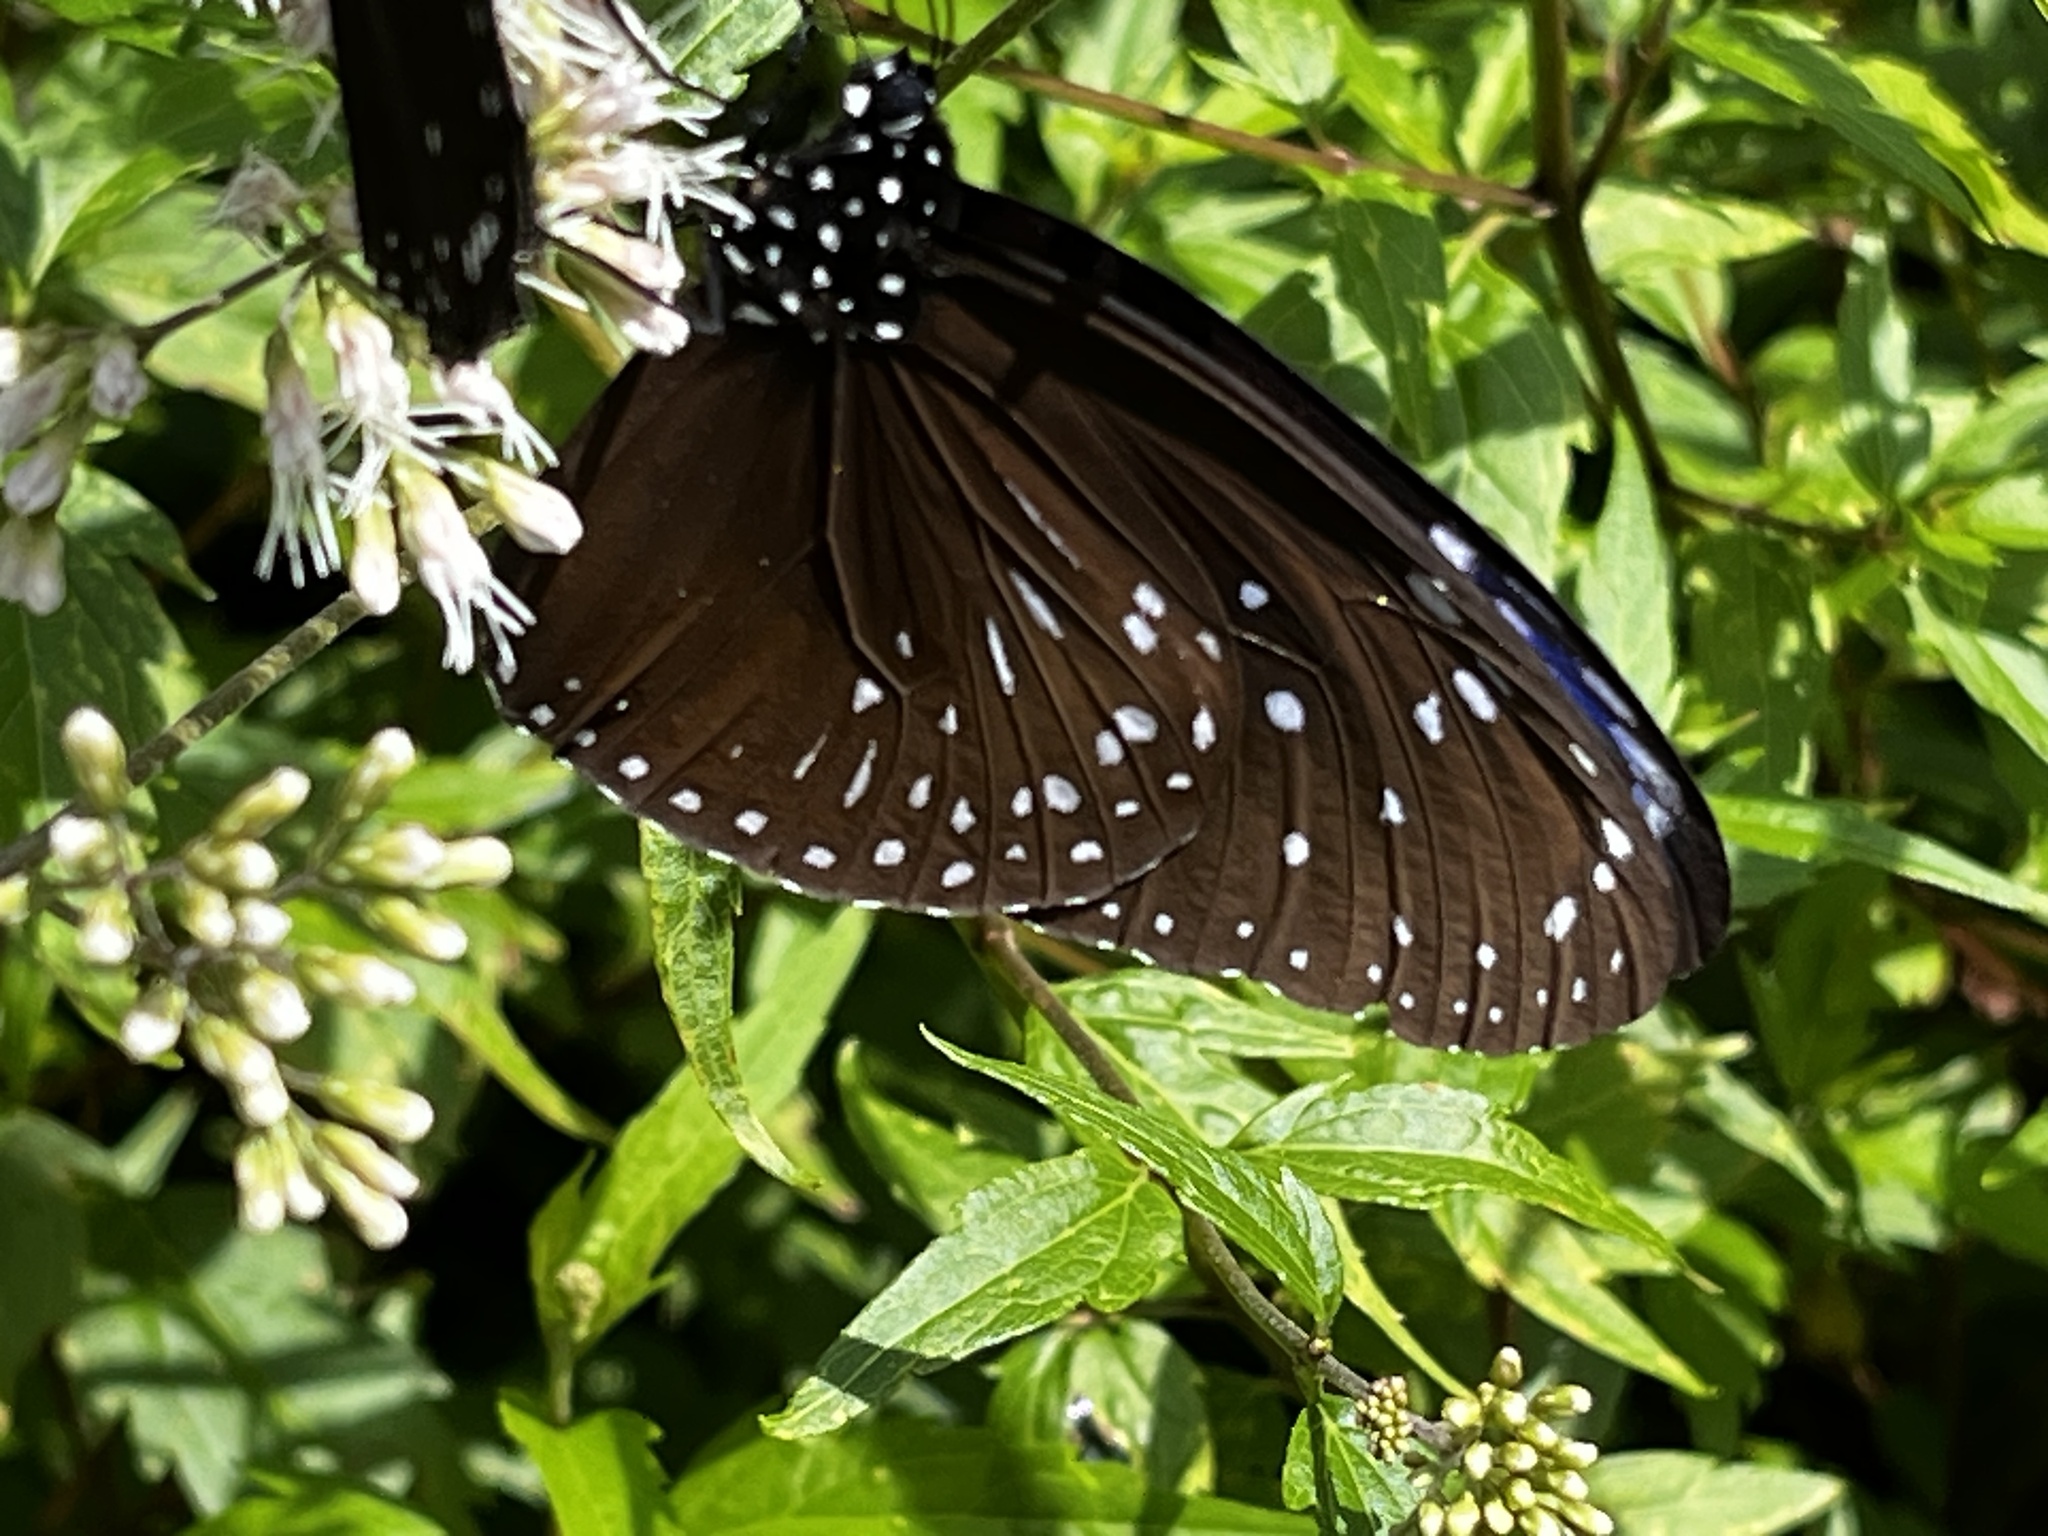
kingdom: Animalia
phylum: Arthropoda
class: Insecta
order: Lepidoptera
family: Nymphalidae
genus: Euploea
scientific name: Euploea mulciber
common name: Striped blue crow butterfly
